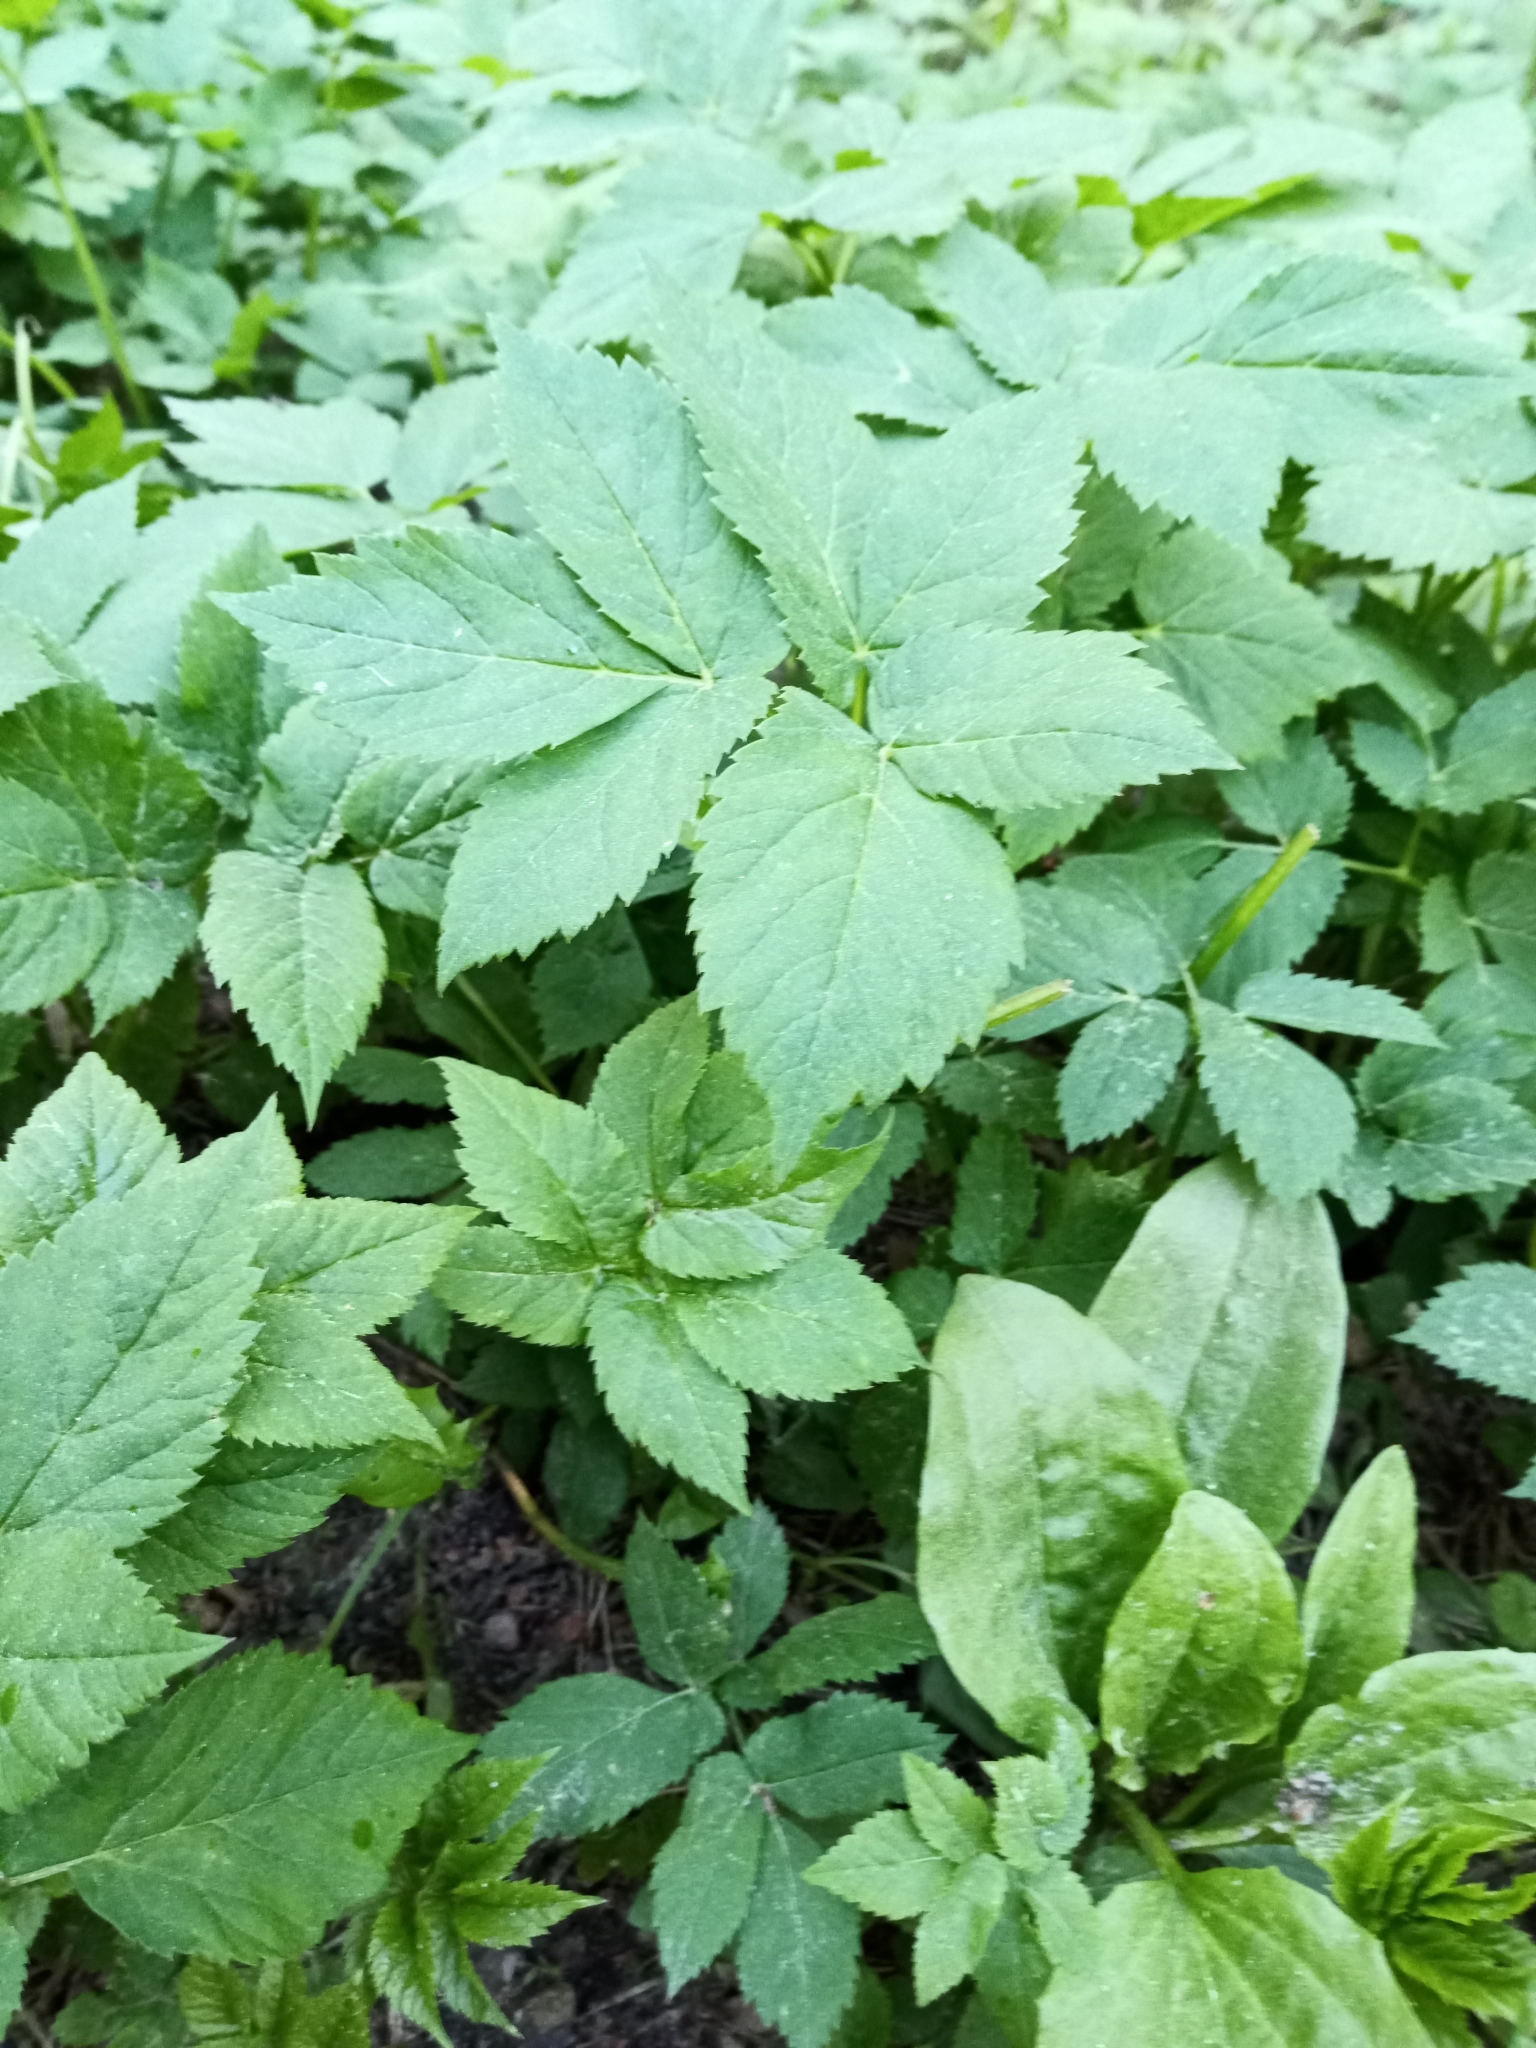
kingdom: Plantae
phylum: Tracheophyta
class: Magnoliopsida
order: Apiales
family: Apiaceae
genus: Aegopodium
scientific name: Aegopodium podagraria
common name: Ground-elder
